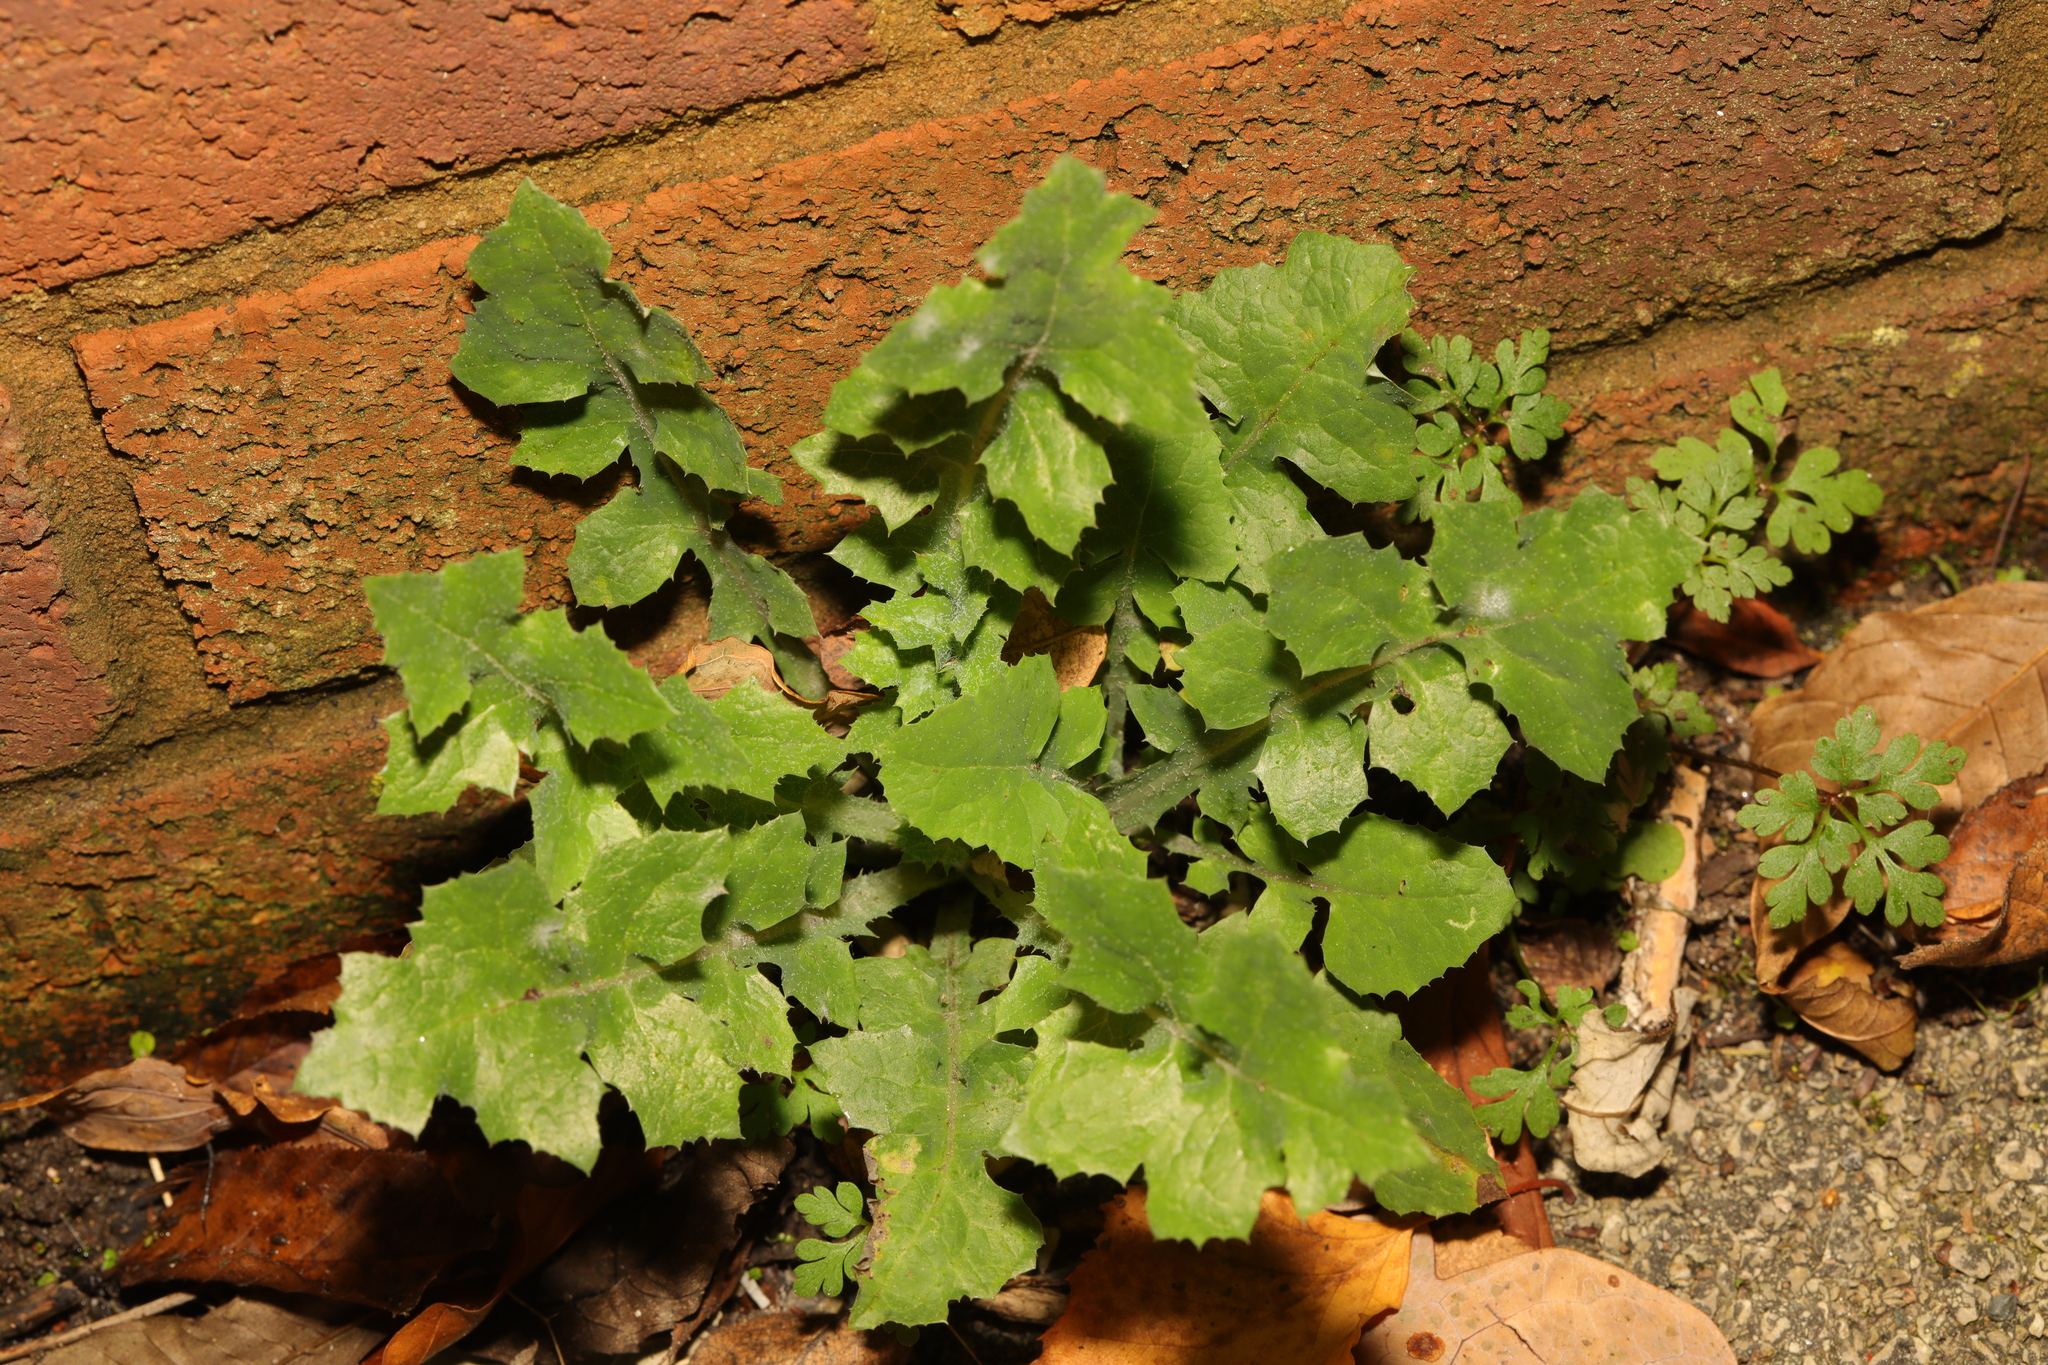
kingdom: Plantae
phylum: Tracheophyta
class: Magnoliopsida
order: Asterales
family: Asteraceae
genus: Sonchus
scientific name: Sonchus oleraceus
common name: Common sowthistle
